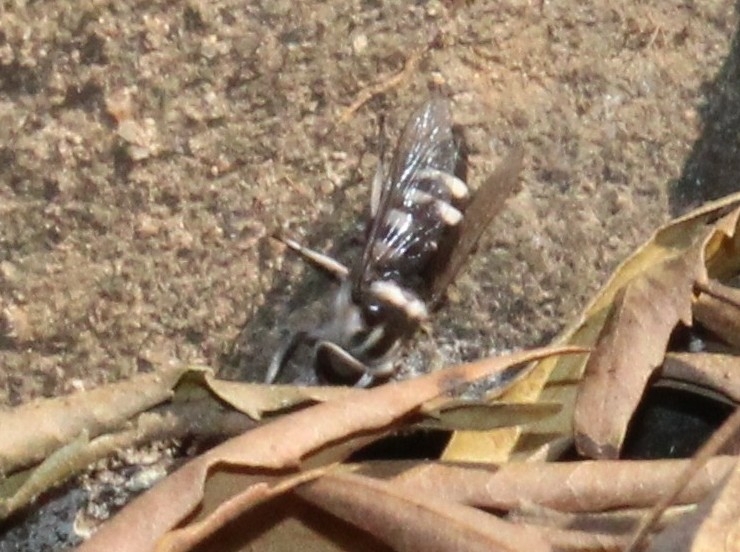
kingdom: Animalia
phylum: Arthropoda
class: Insecta
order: Diptera
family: Tabanidae
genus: Tabanus
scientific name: Tabanus insignis
